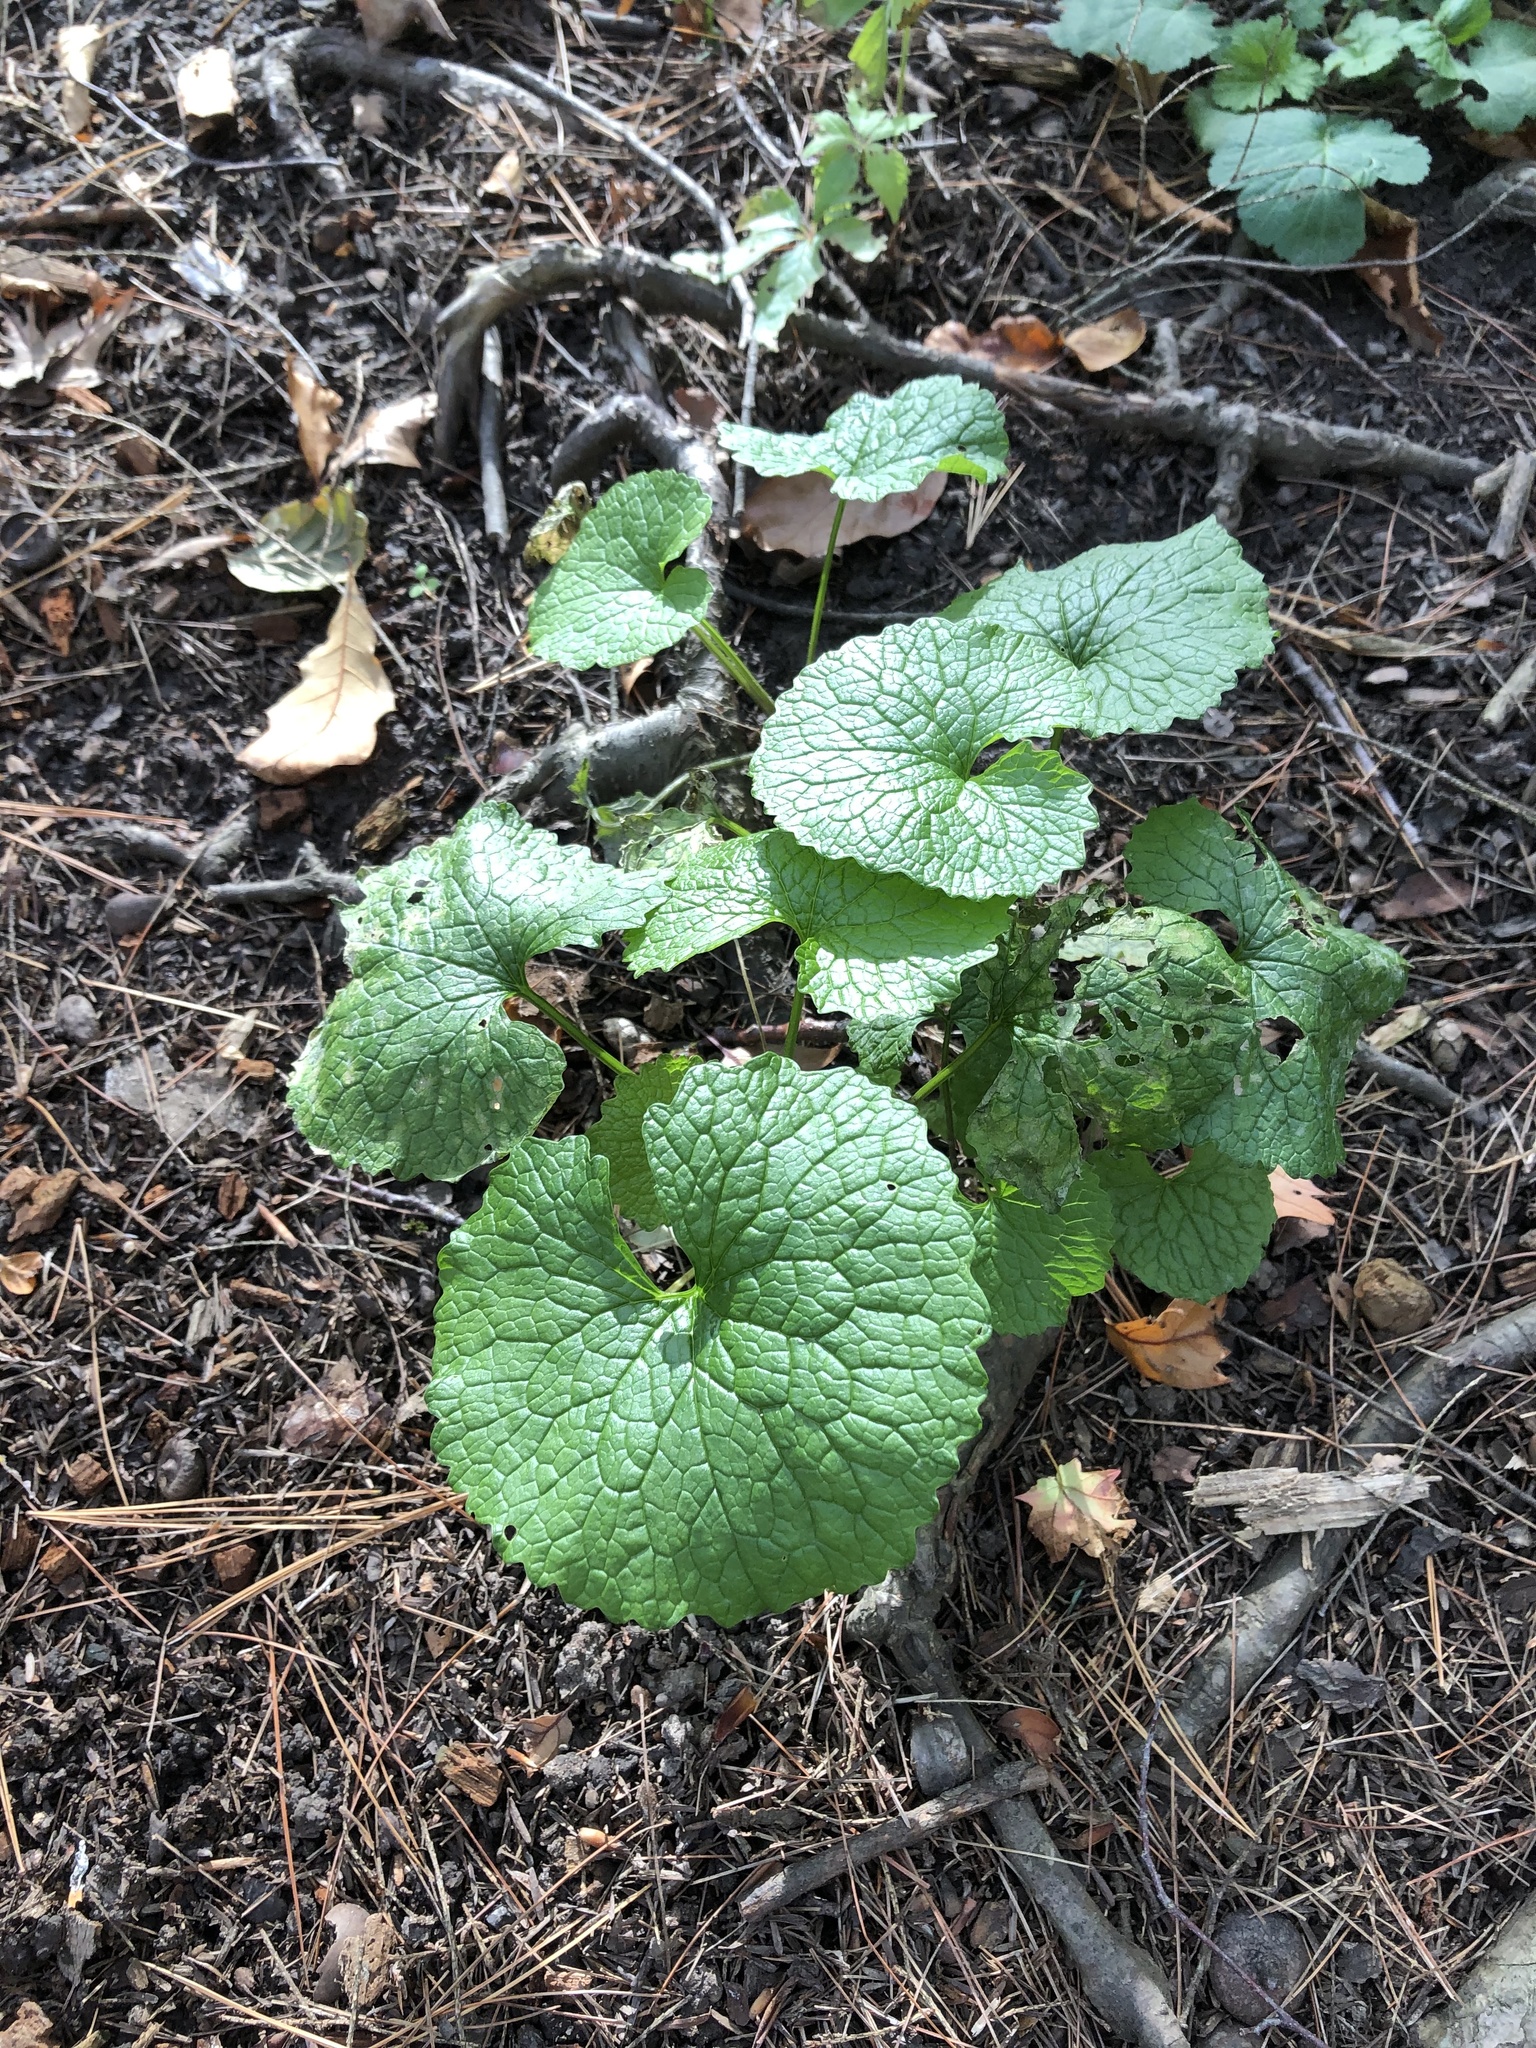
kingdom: Plantae
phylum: Tracheophyta
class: Magnoliopsida
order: Brassicales
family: Brassicaceae
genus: Alliaria
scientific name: Alliaria petiolata
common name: Garlic mustard
